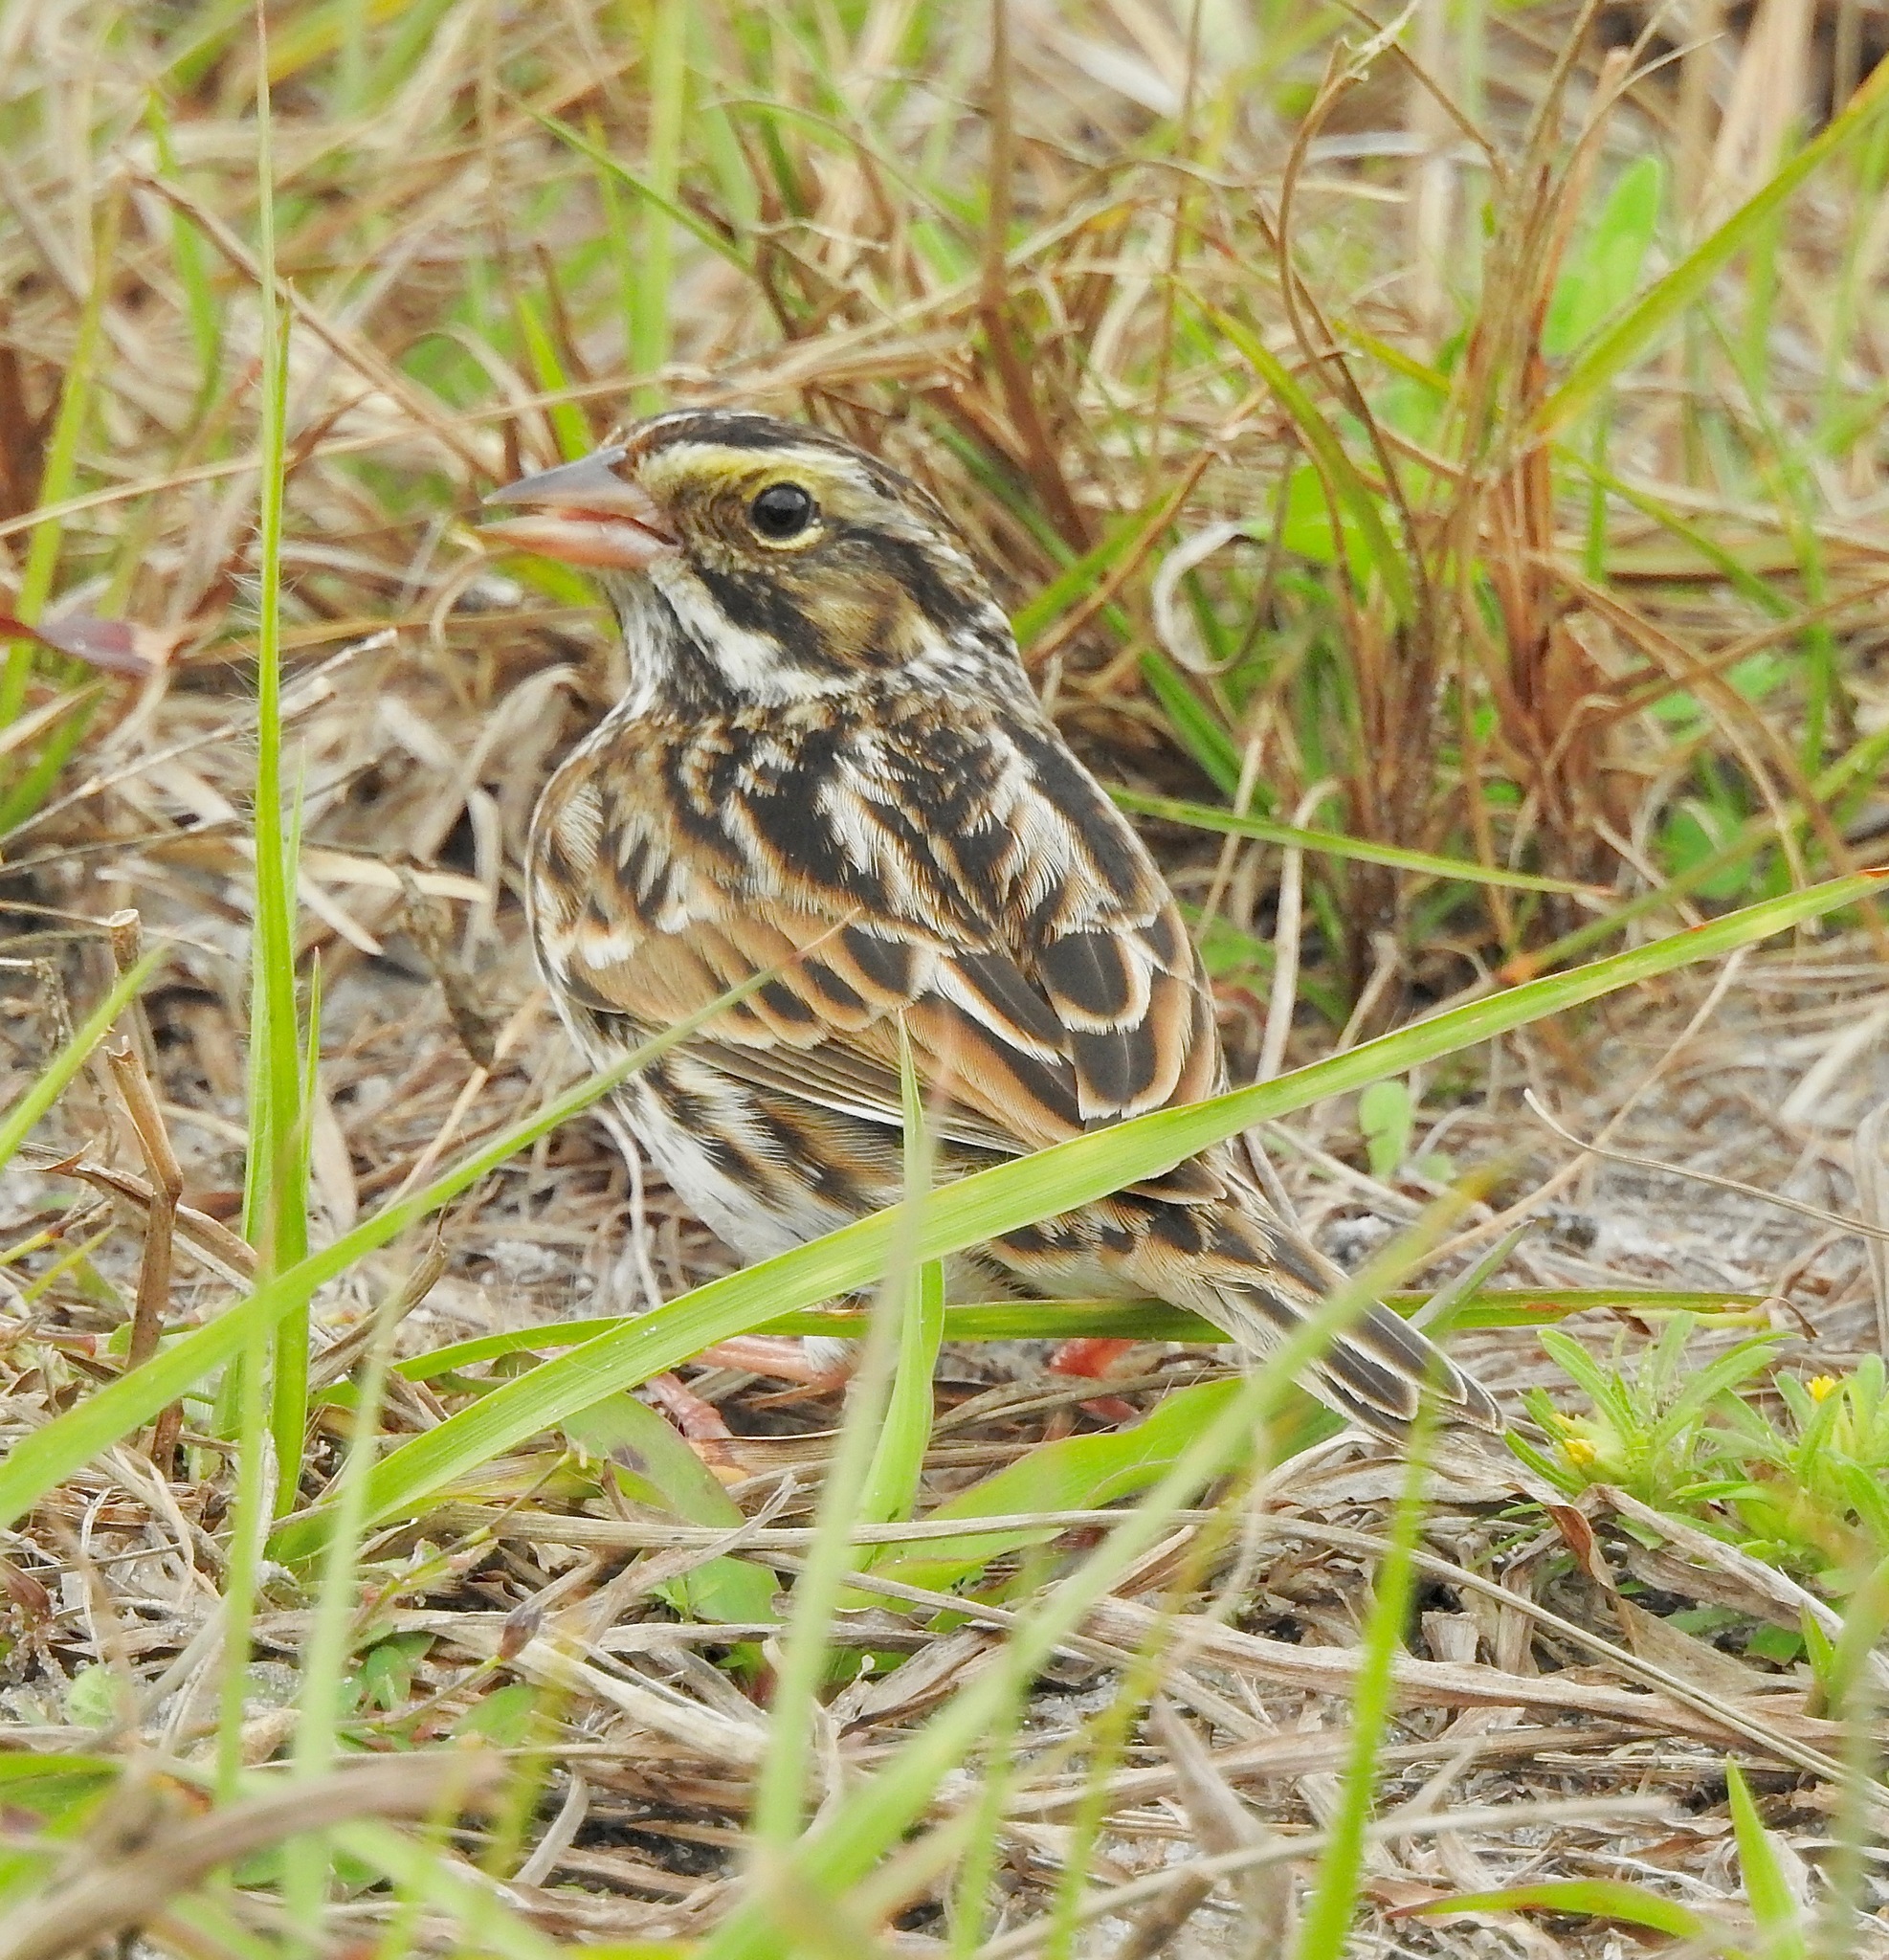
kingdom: Animalia
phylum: Chordata
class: Aves
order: Passeriformes
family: Passerellidae
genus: Passerculus
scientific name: Passerculus sandwichensis
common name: Savannah sparrow
